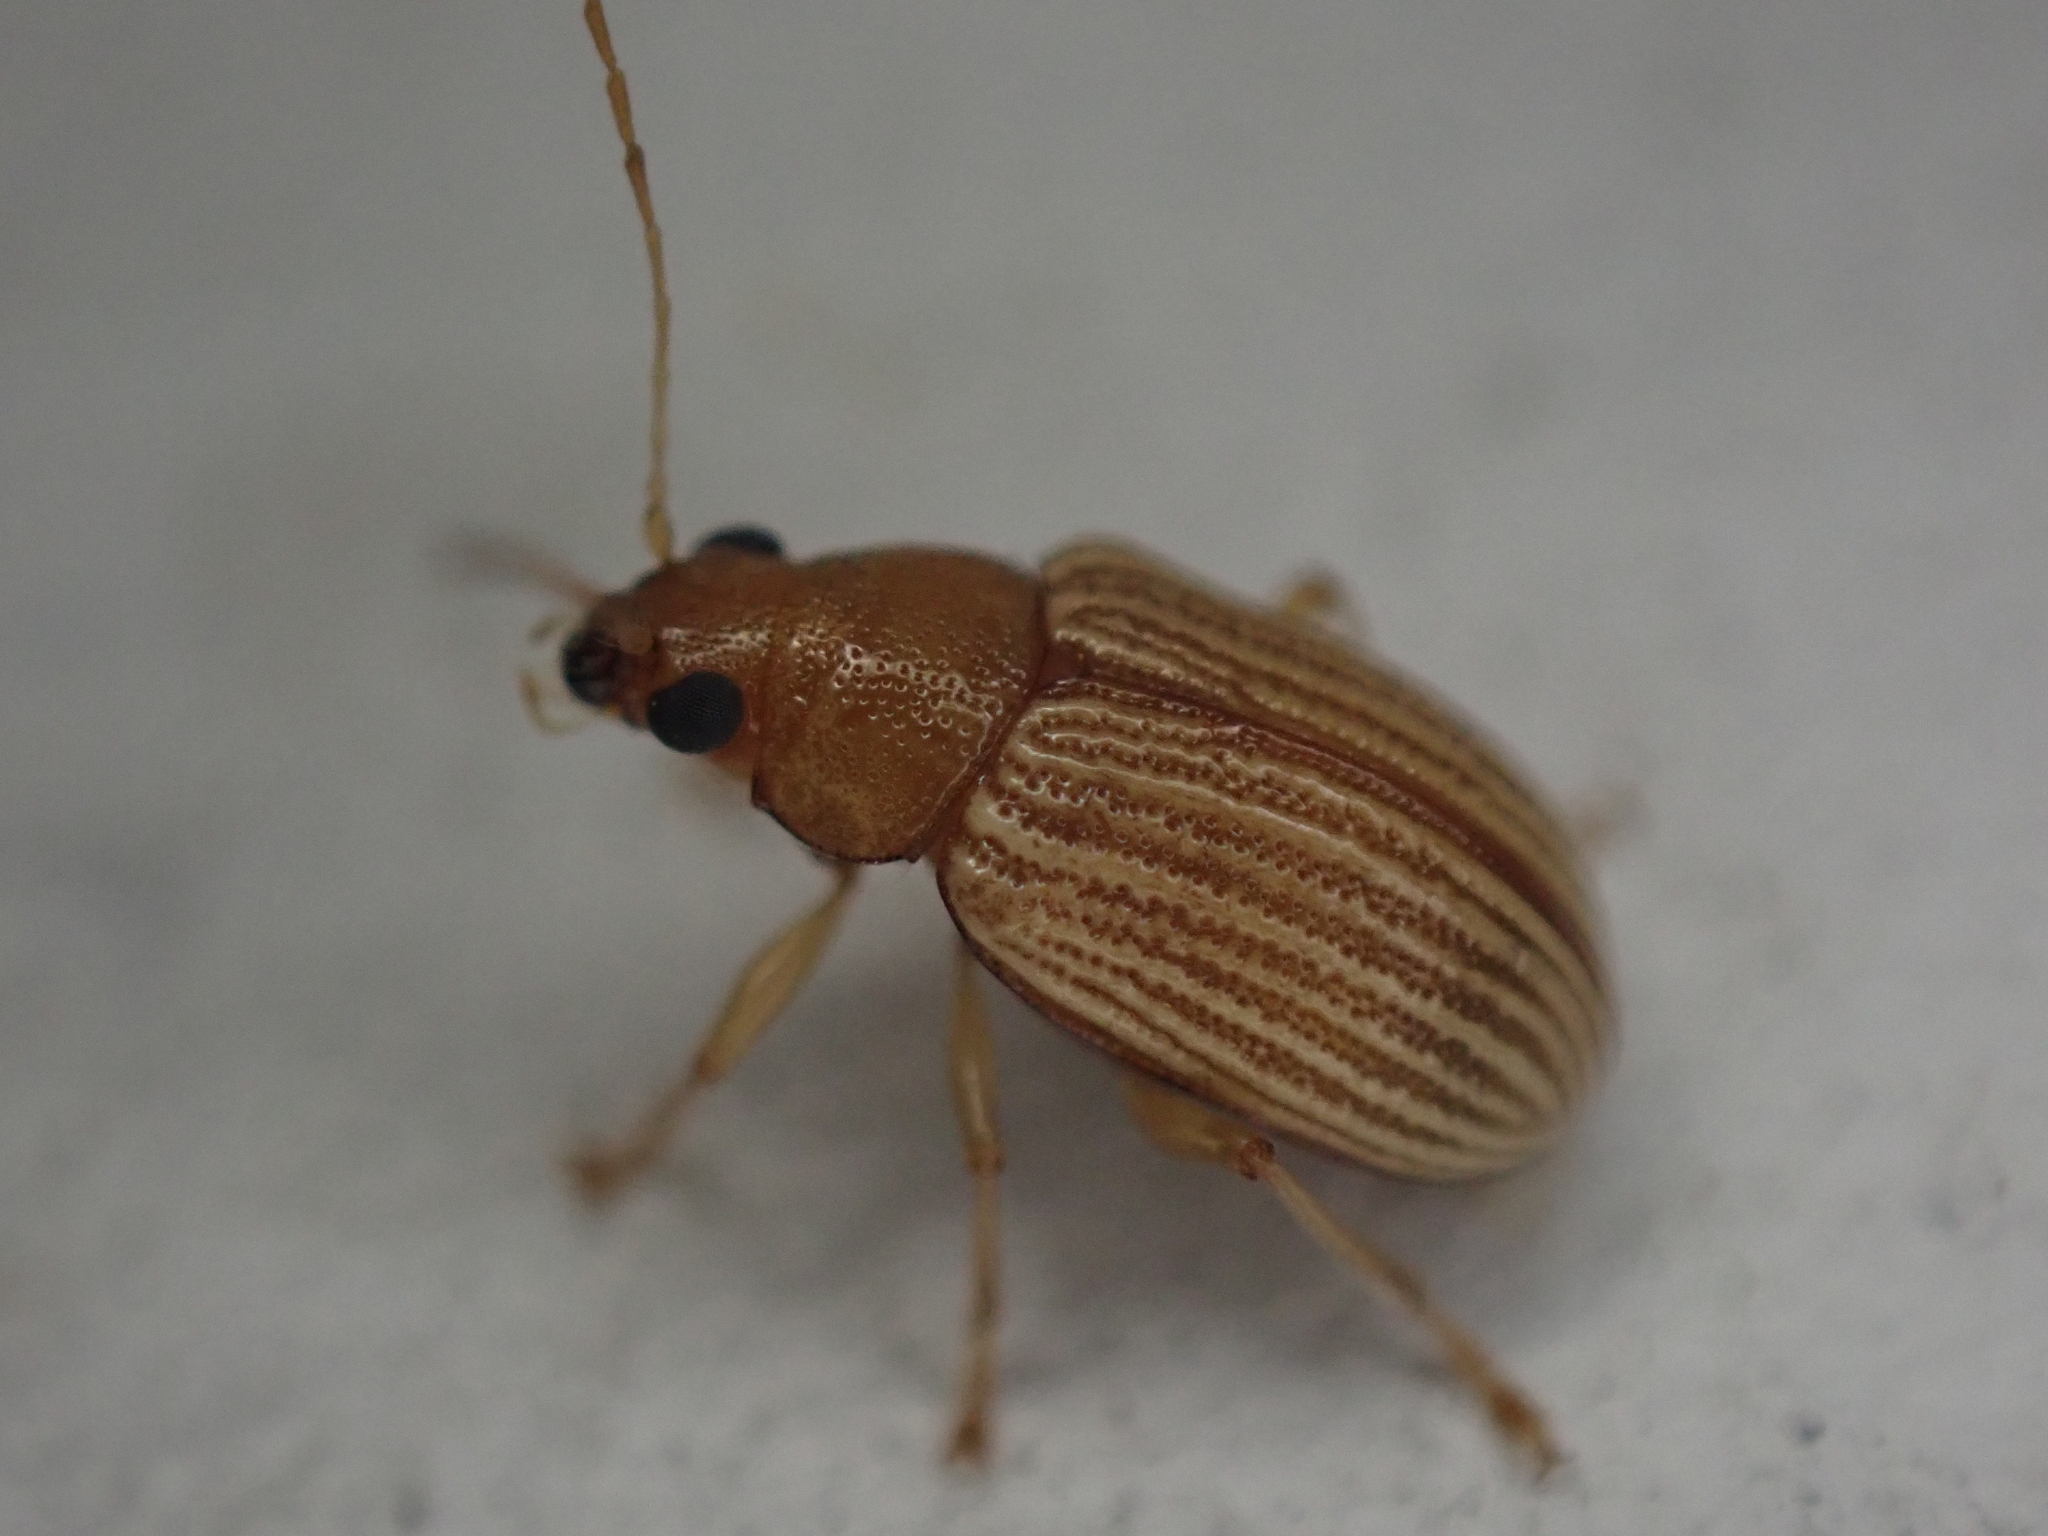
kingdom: Animalia
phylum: Arthropoda
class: Insecta
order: Coleoptera
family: Chrysomelidae
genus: Colaspis
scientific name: Colaspis brunnea
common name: Grape colaspis
